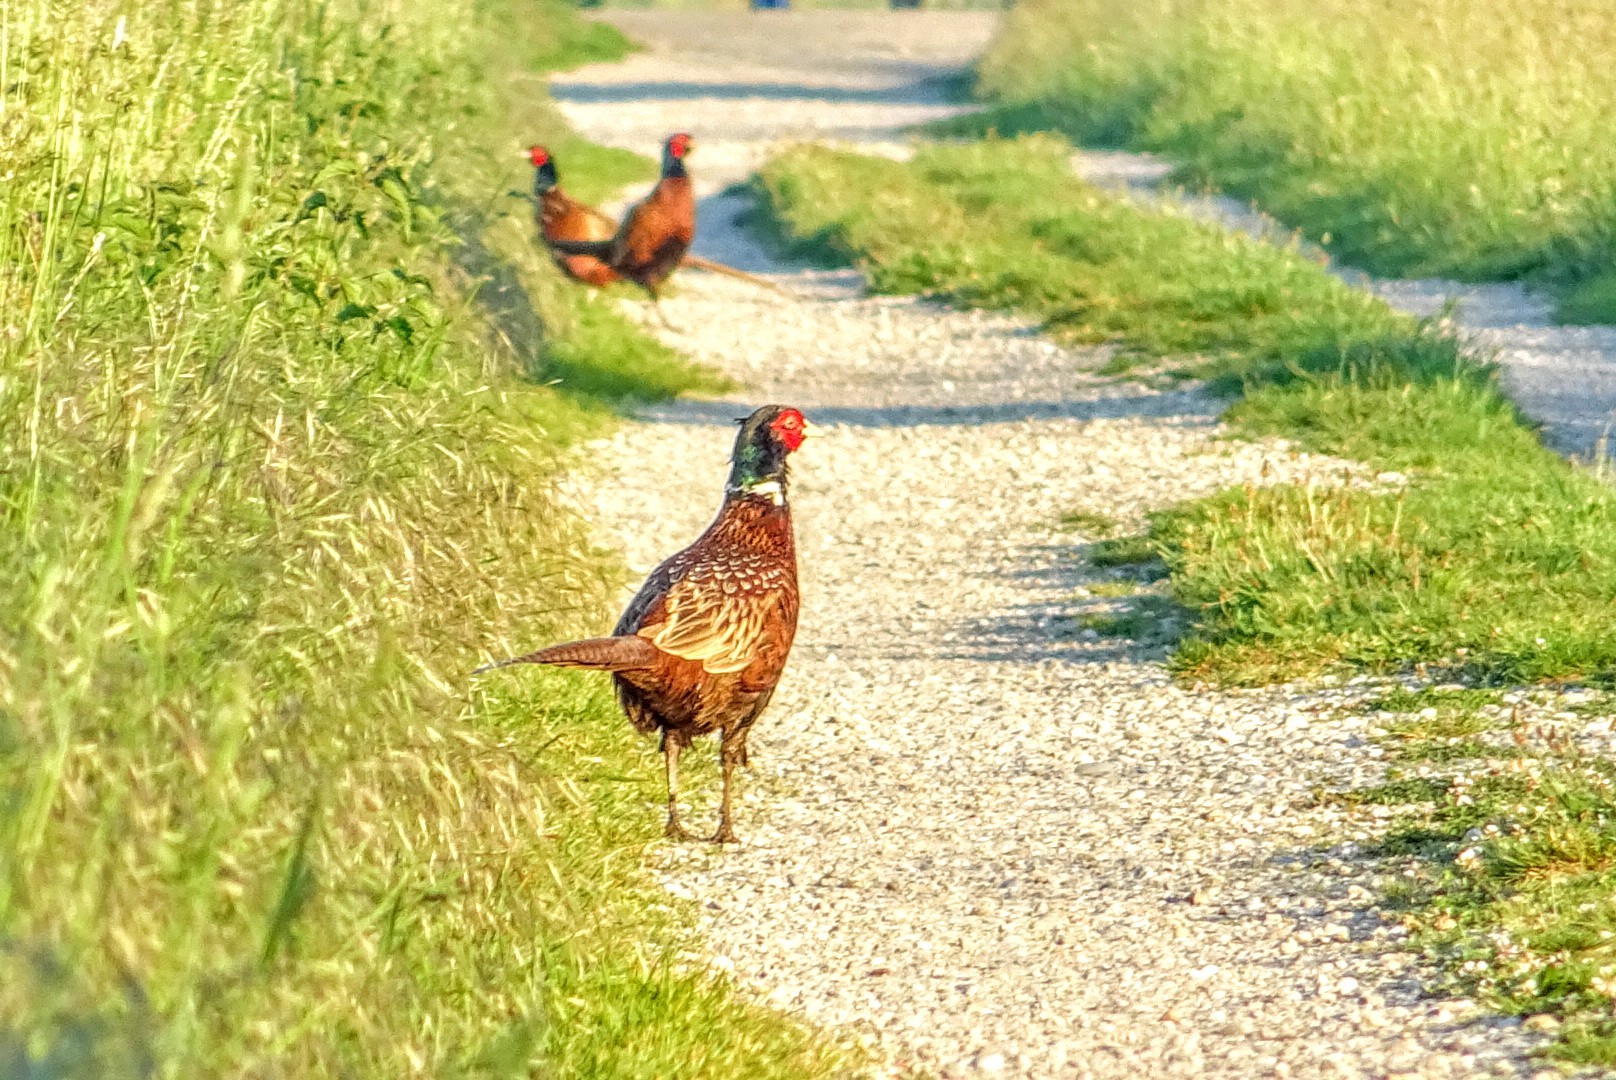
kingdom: Animalia
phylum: Chordata
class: Aves
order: Galliformes
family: Phasianidae
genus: Phasianus
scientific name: Phasianus colchicus
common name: Common pheasant
